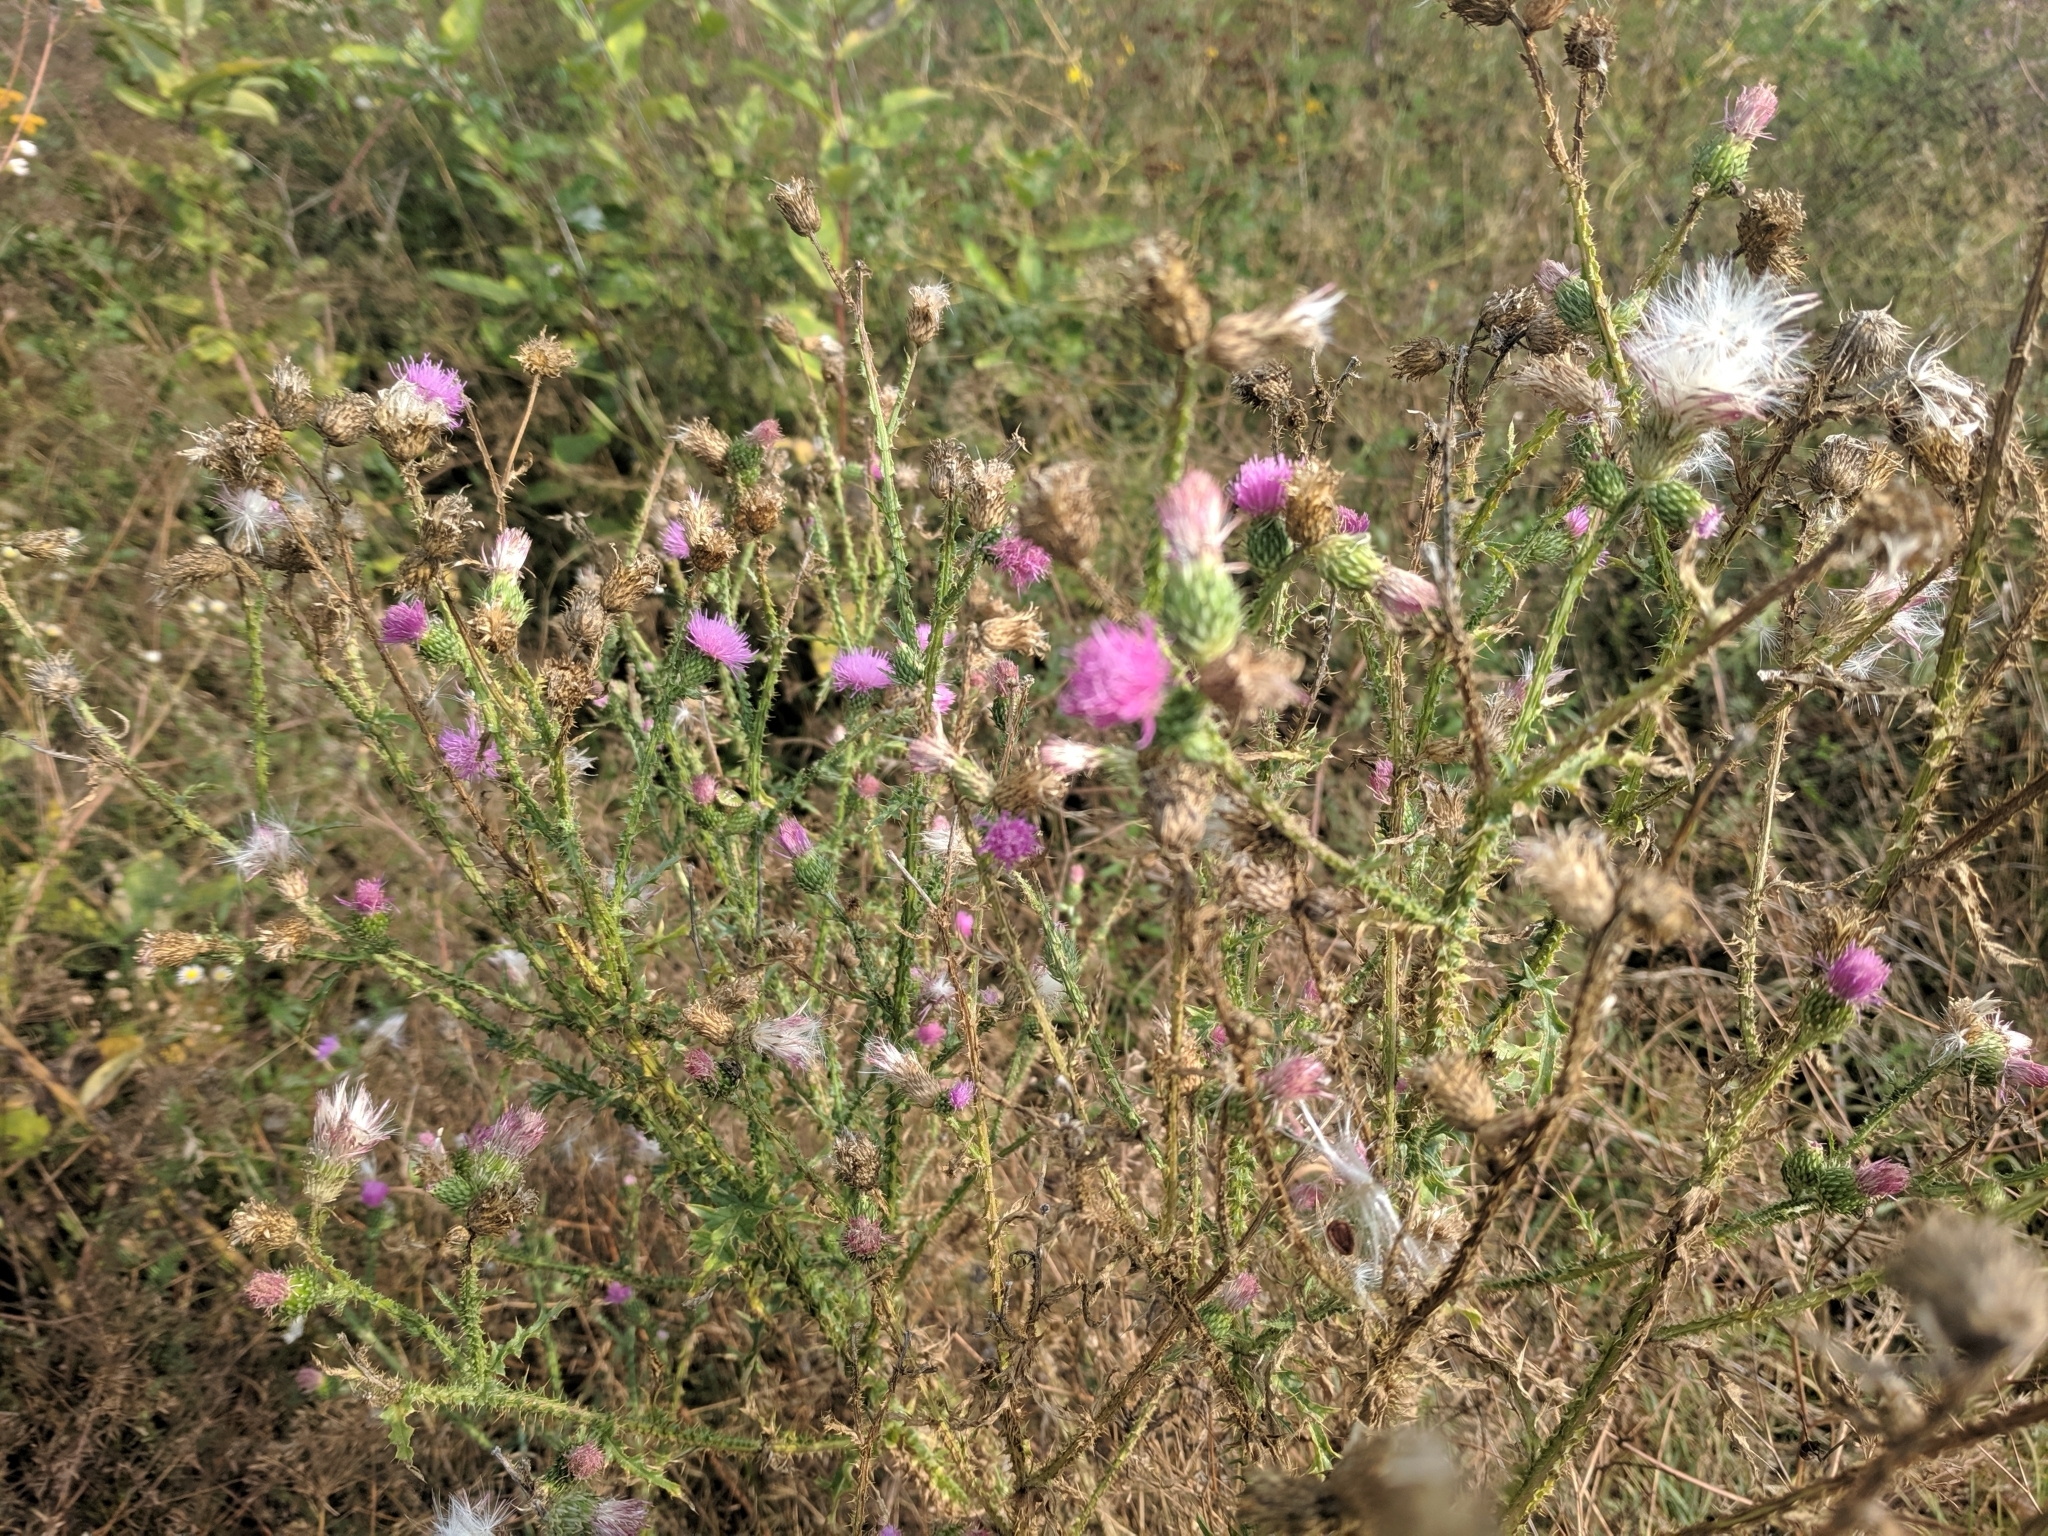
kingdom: Plantae
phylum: Tracheophyta
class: Magnoliopsida
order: Asterales
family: Asteraceae
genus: Carduus
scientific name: Carduus acanthoides
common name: Plumeless thistle
